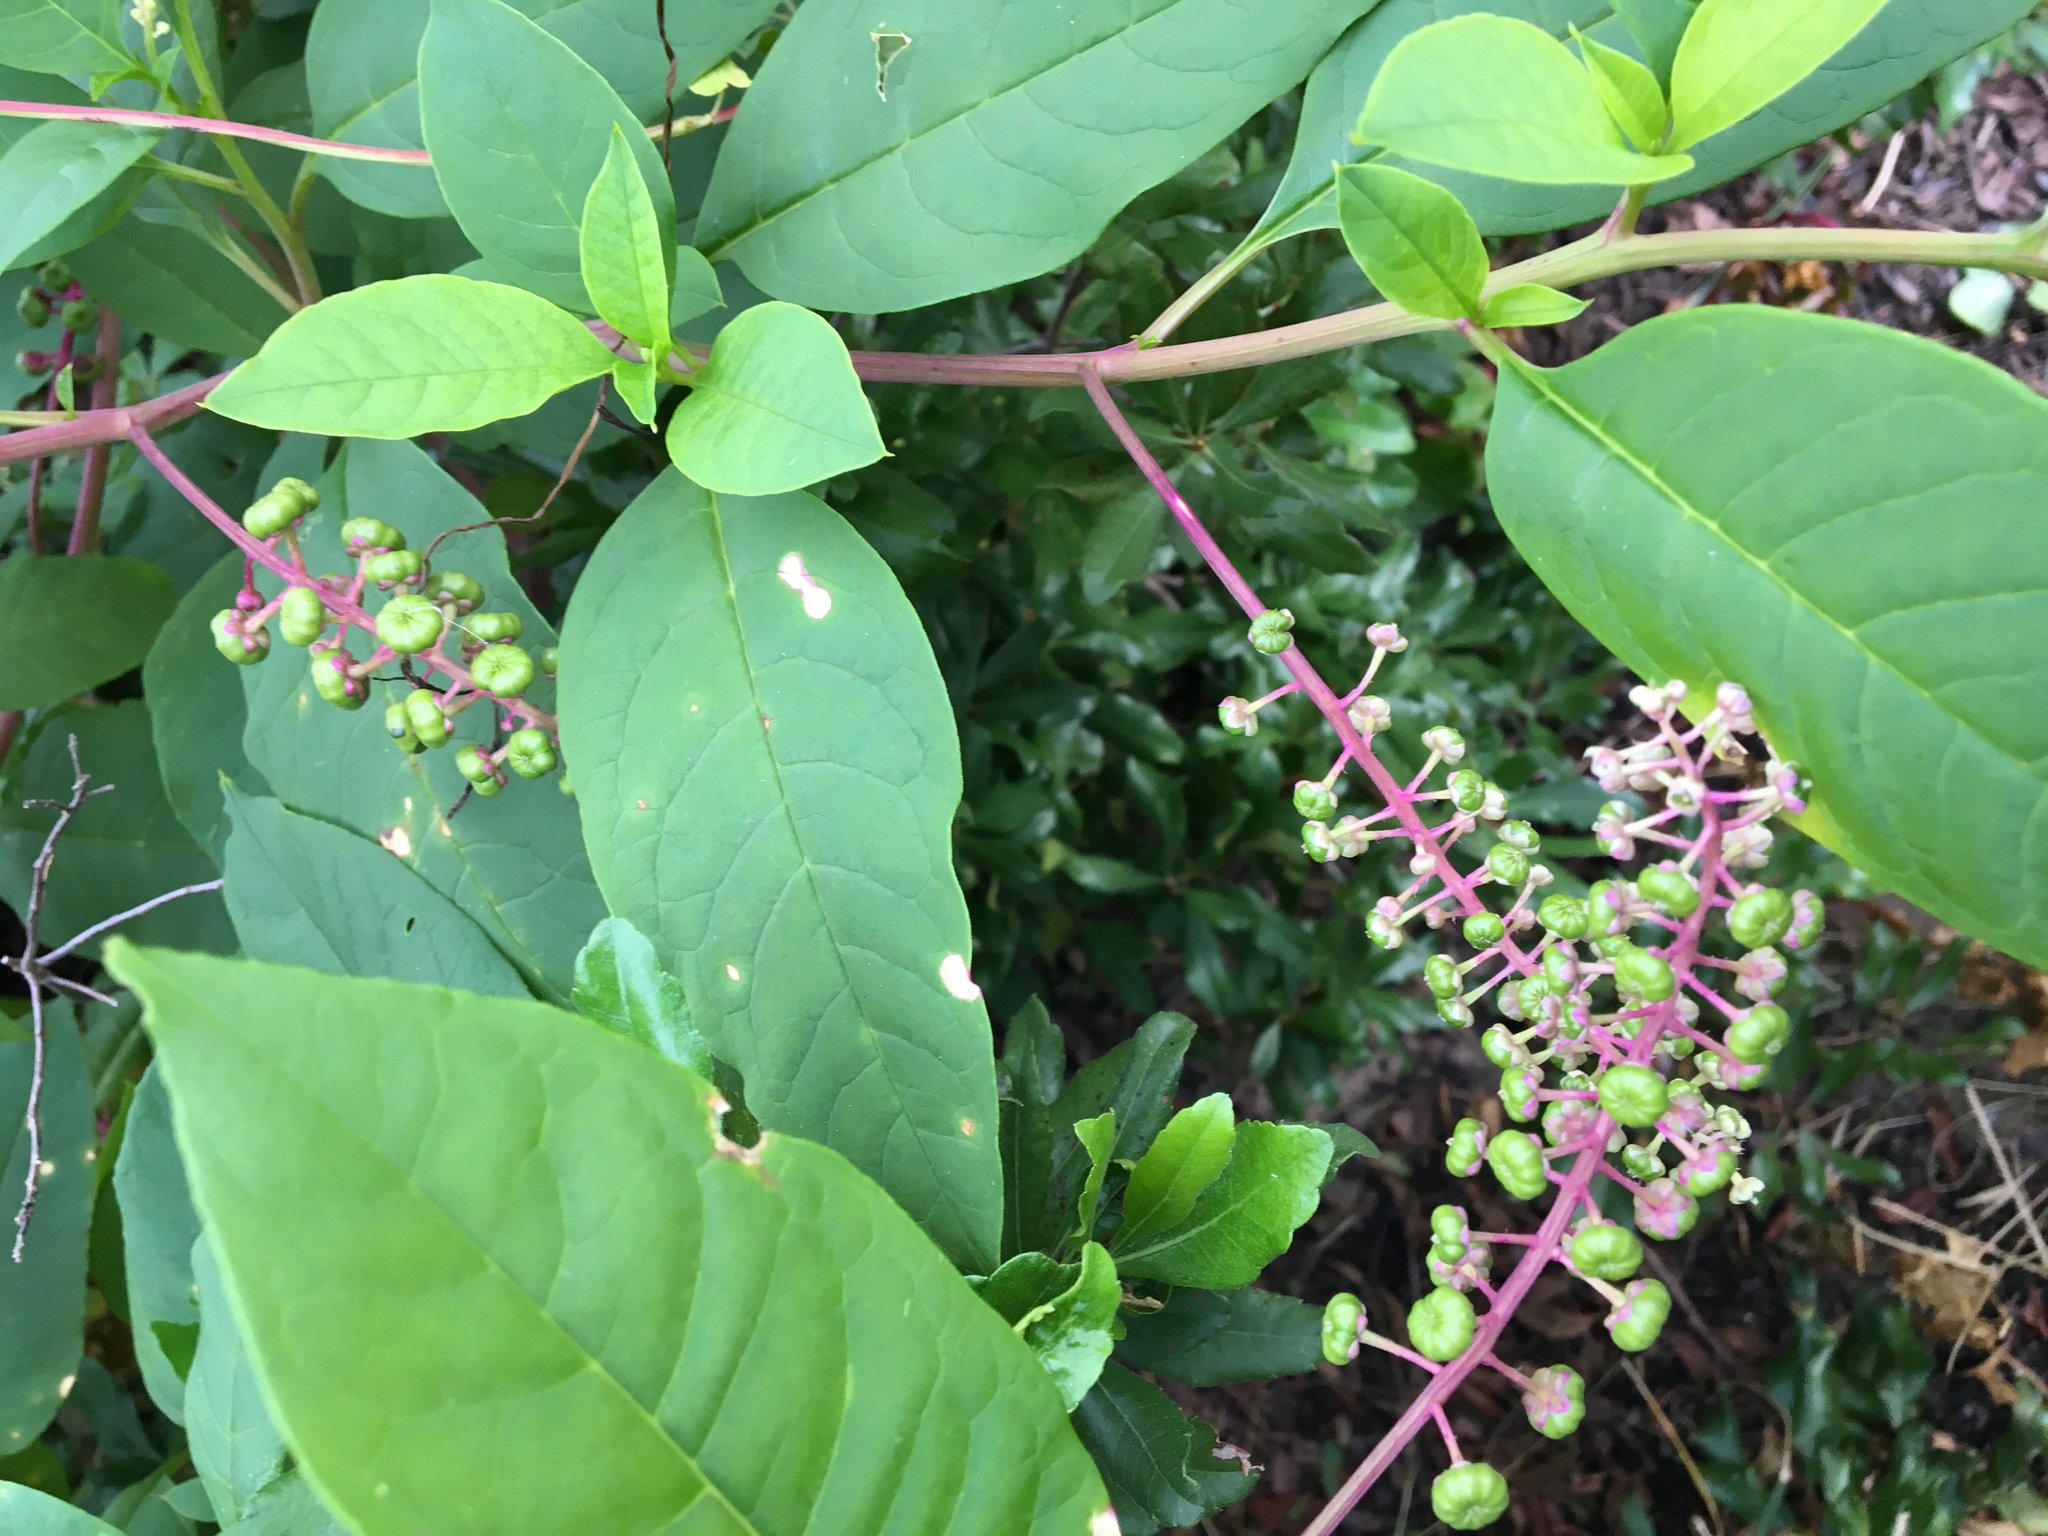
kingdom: Plantae
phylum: Tracheophyta
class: Magnoliopsida
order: Caryophyllales
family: Phytolaccaceae
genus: Phytolacca
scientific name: Phytolacca americana
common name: American pokeweed
